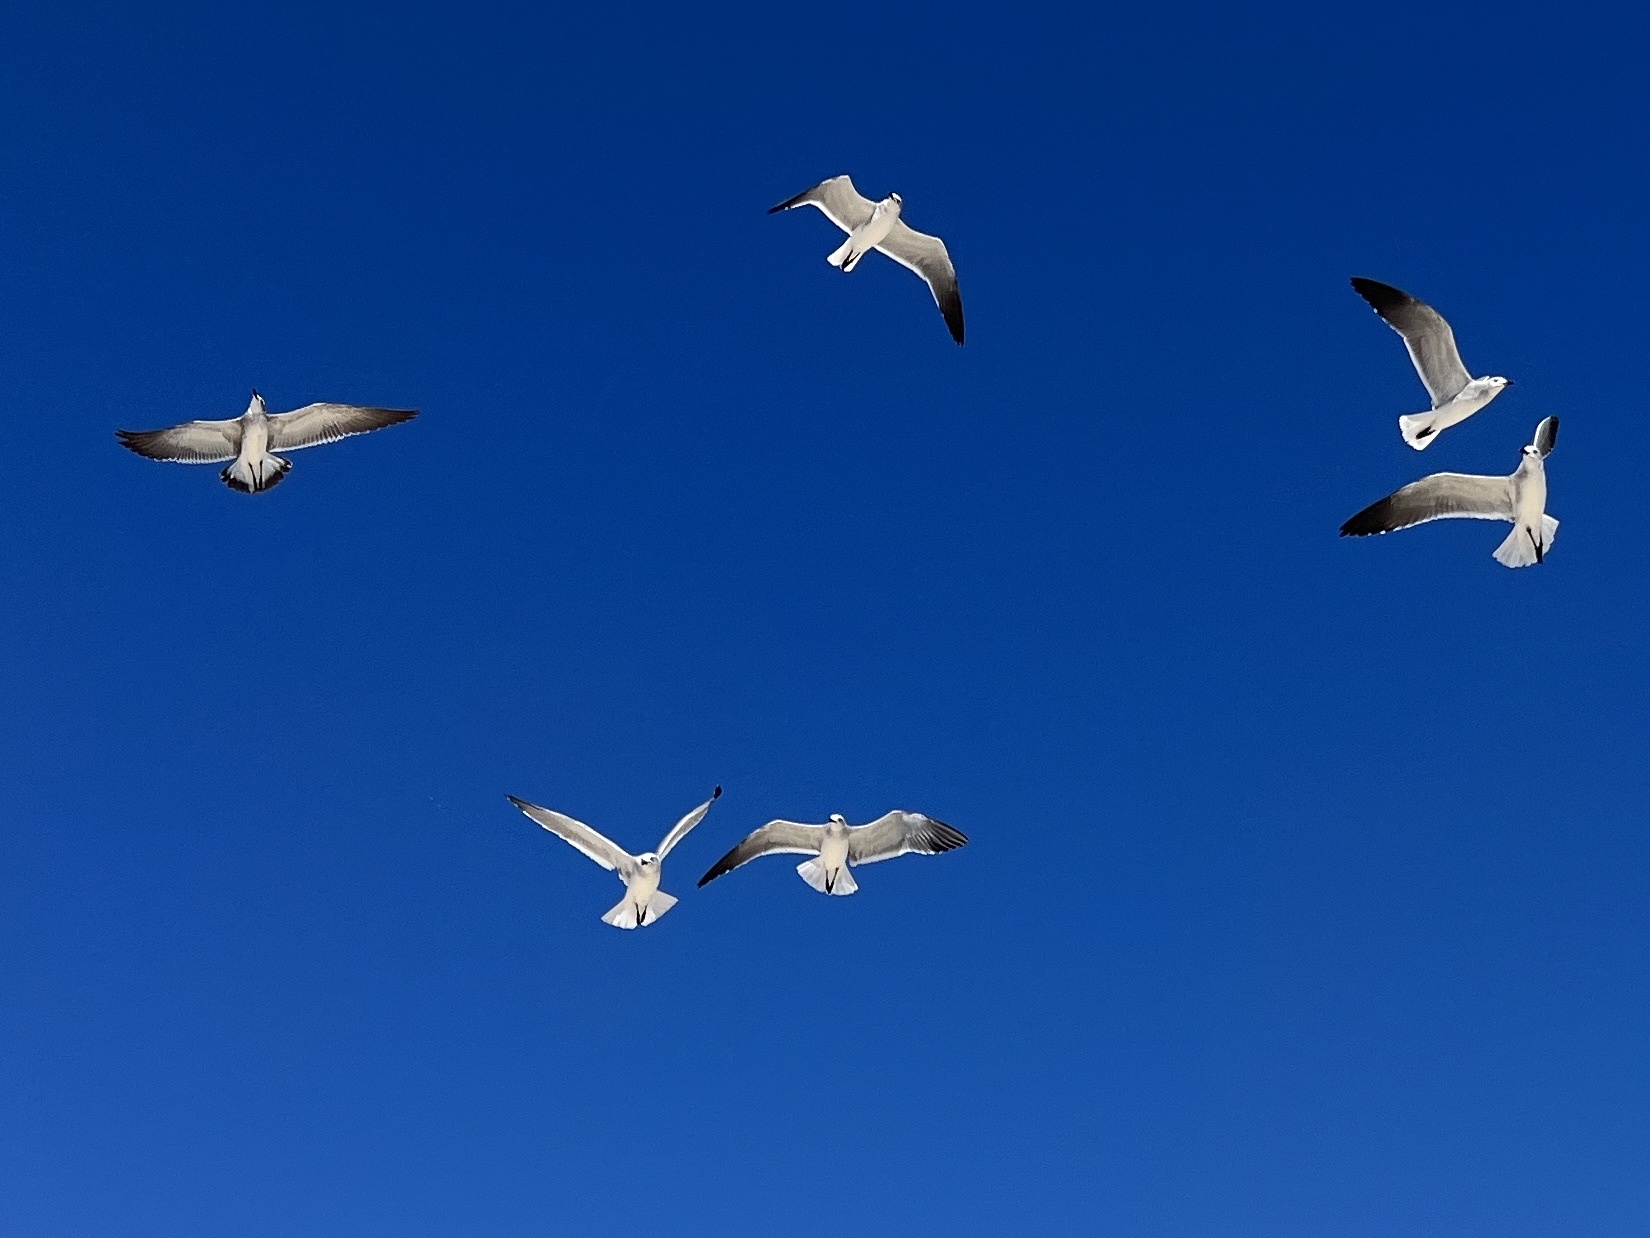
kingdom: Animalia
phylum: Chordata
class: Aves
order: Charadriiformes
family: Laridae
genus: Leucophaeus
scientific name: Leucophaeus atricilla
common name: Laughing gull
